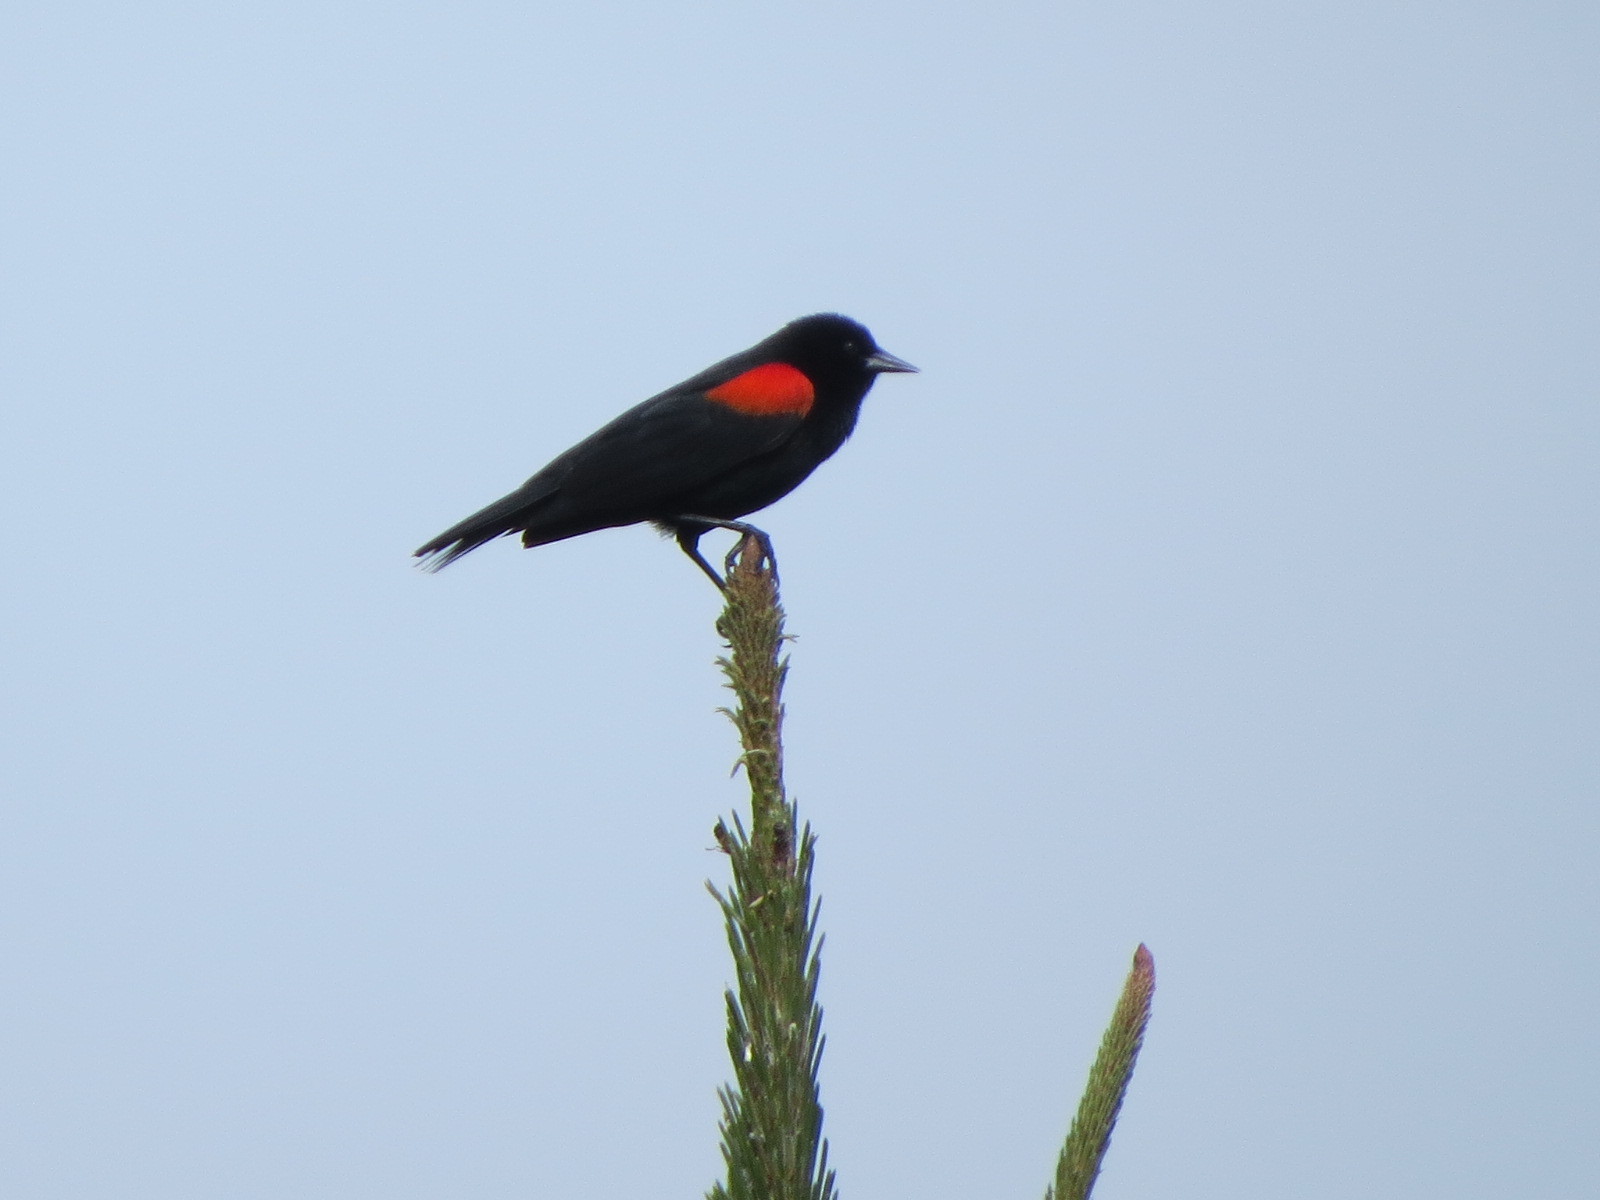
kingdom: Animalia
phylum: Chordata
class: Aves
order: Passeriformes
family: Icteridae
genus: Agelaius
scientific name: Agelaius phoeniceus
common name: Red-winged blackbird
